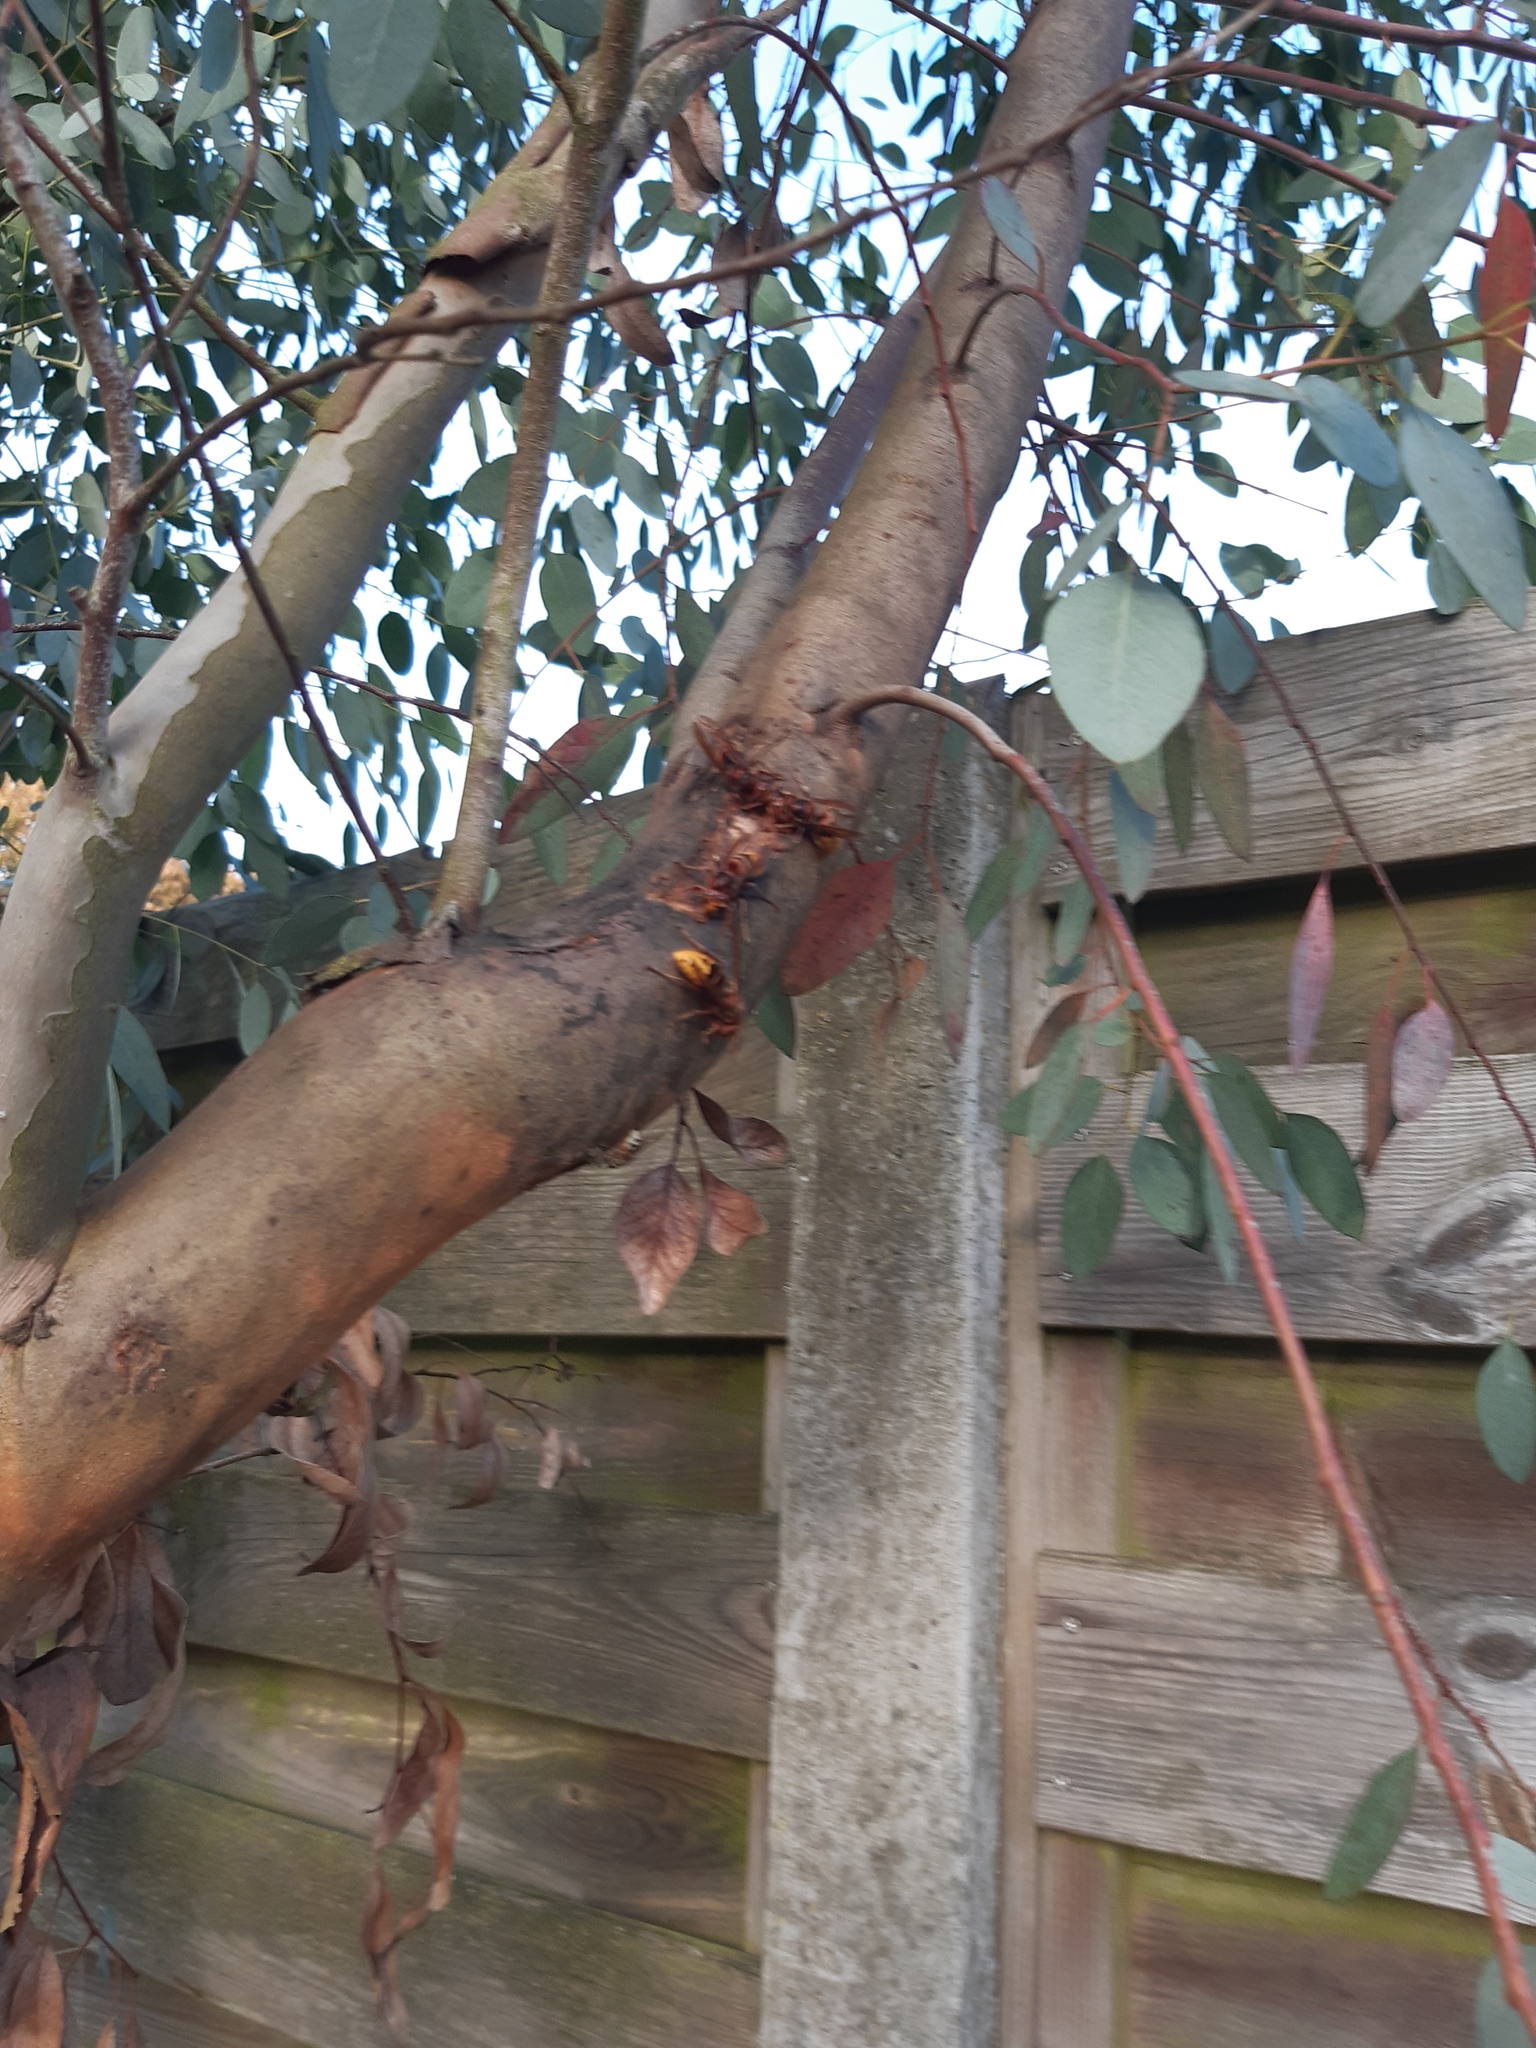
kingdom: Animalia
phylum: Arthropoda
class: Insecta
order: Hymenoptera
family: Vespidae
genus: Vespa
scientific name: Vespa crabro
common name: Hornet
